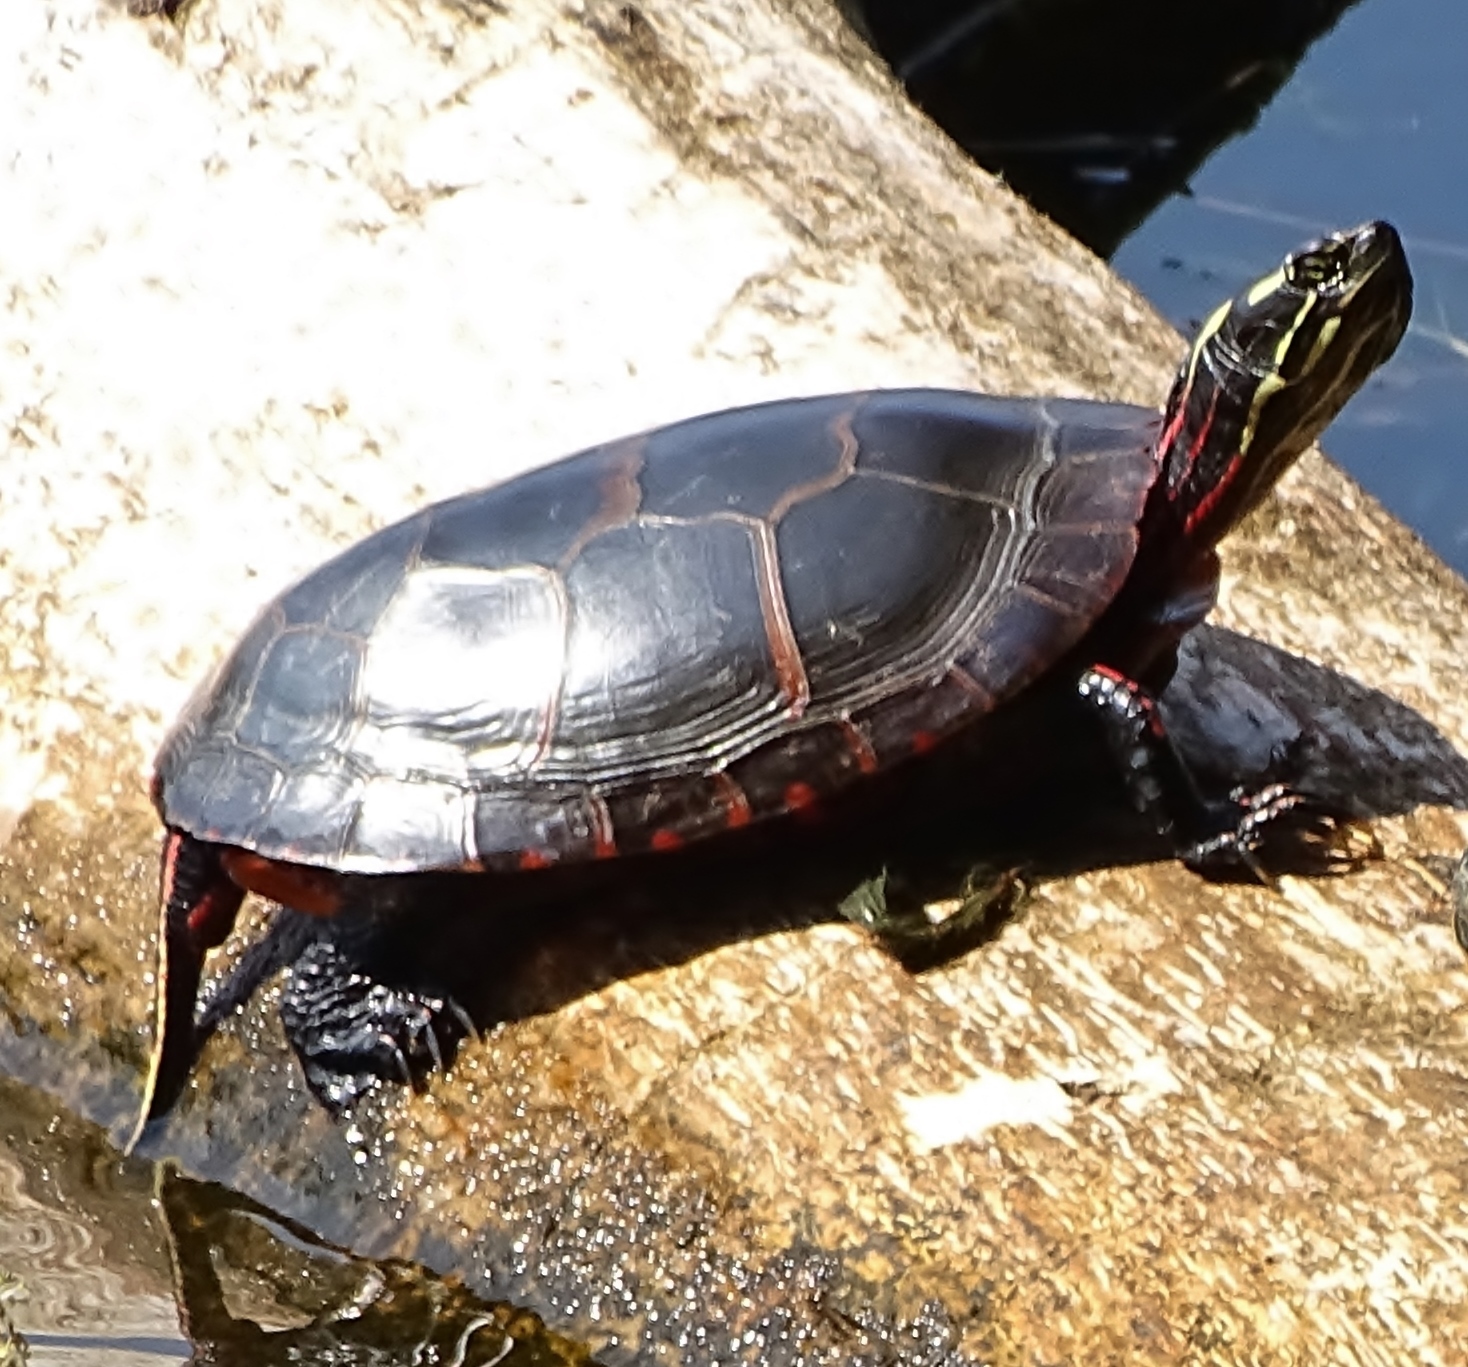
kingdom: Animalia
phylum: Chordata
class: Testudines
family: Emydidae
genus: Chrysemys
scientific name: Chrysemys picta
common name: Painted turtle
